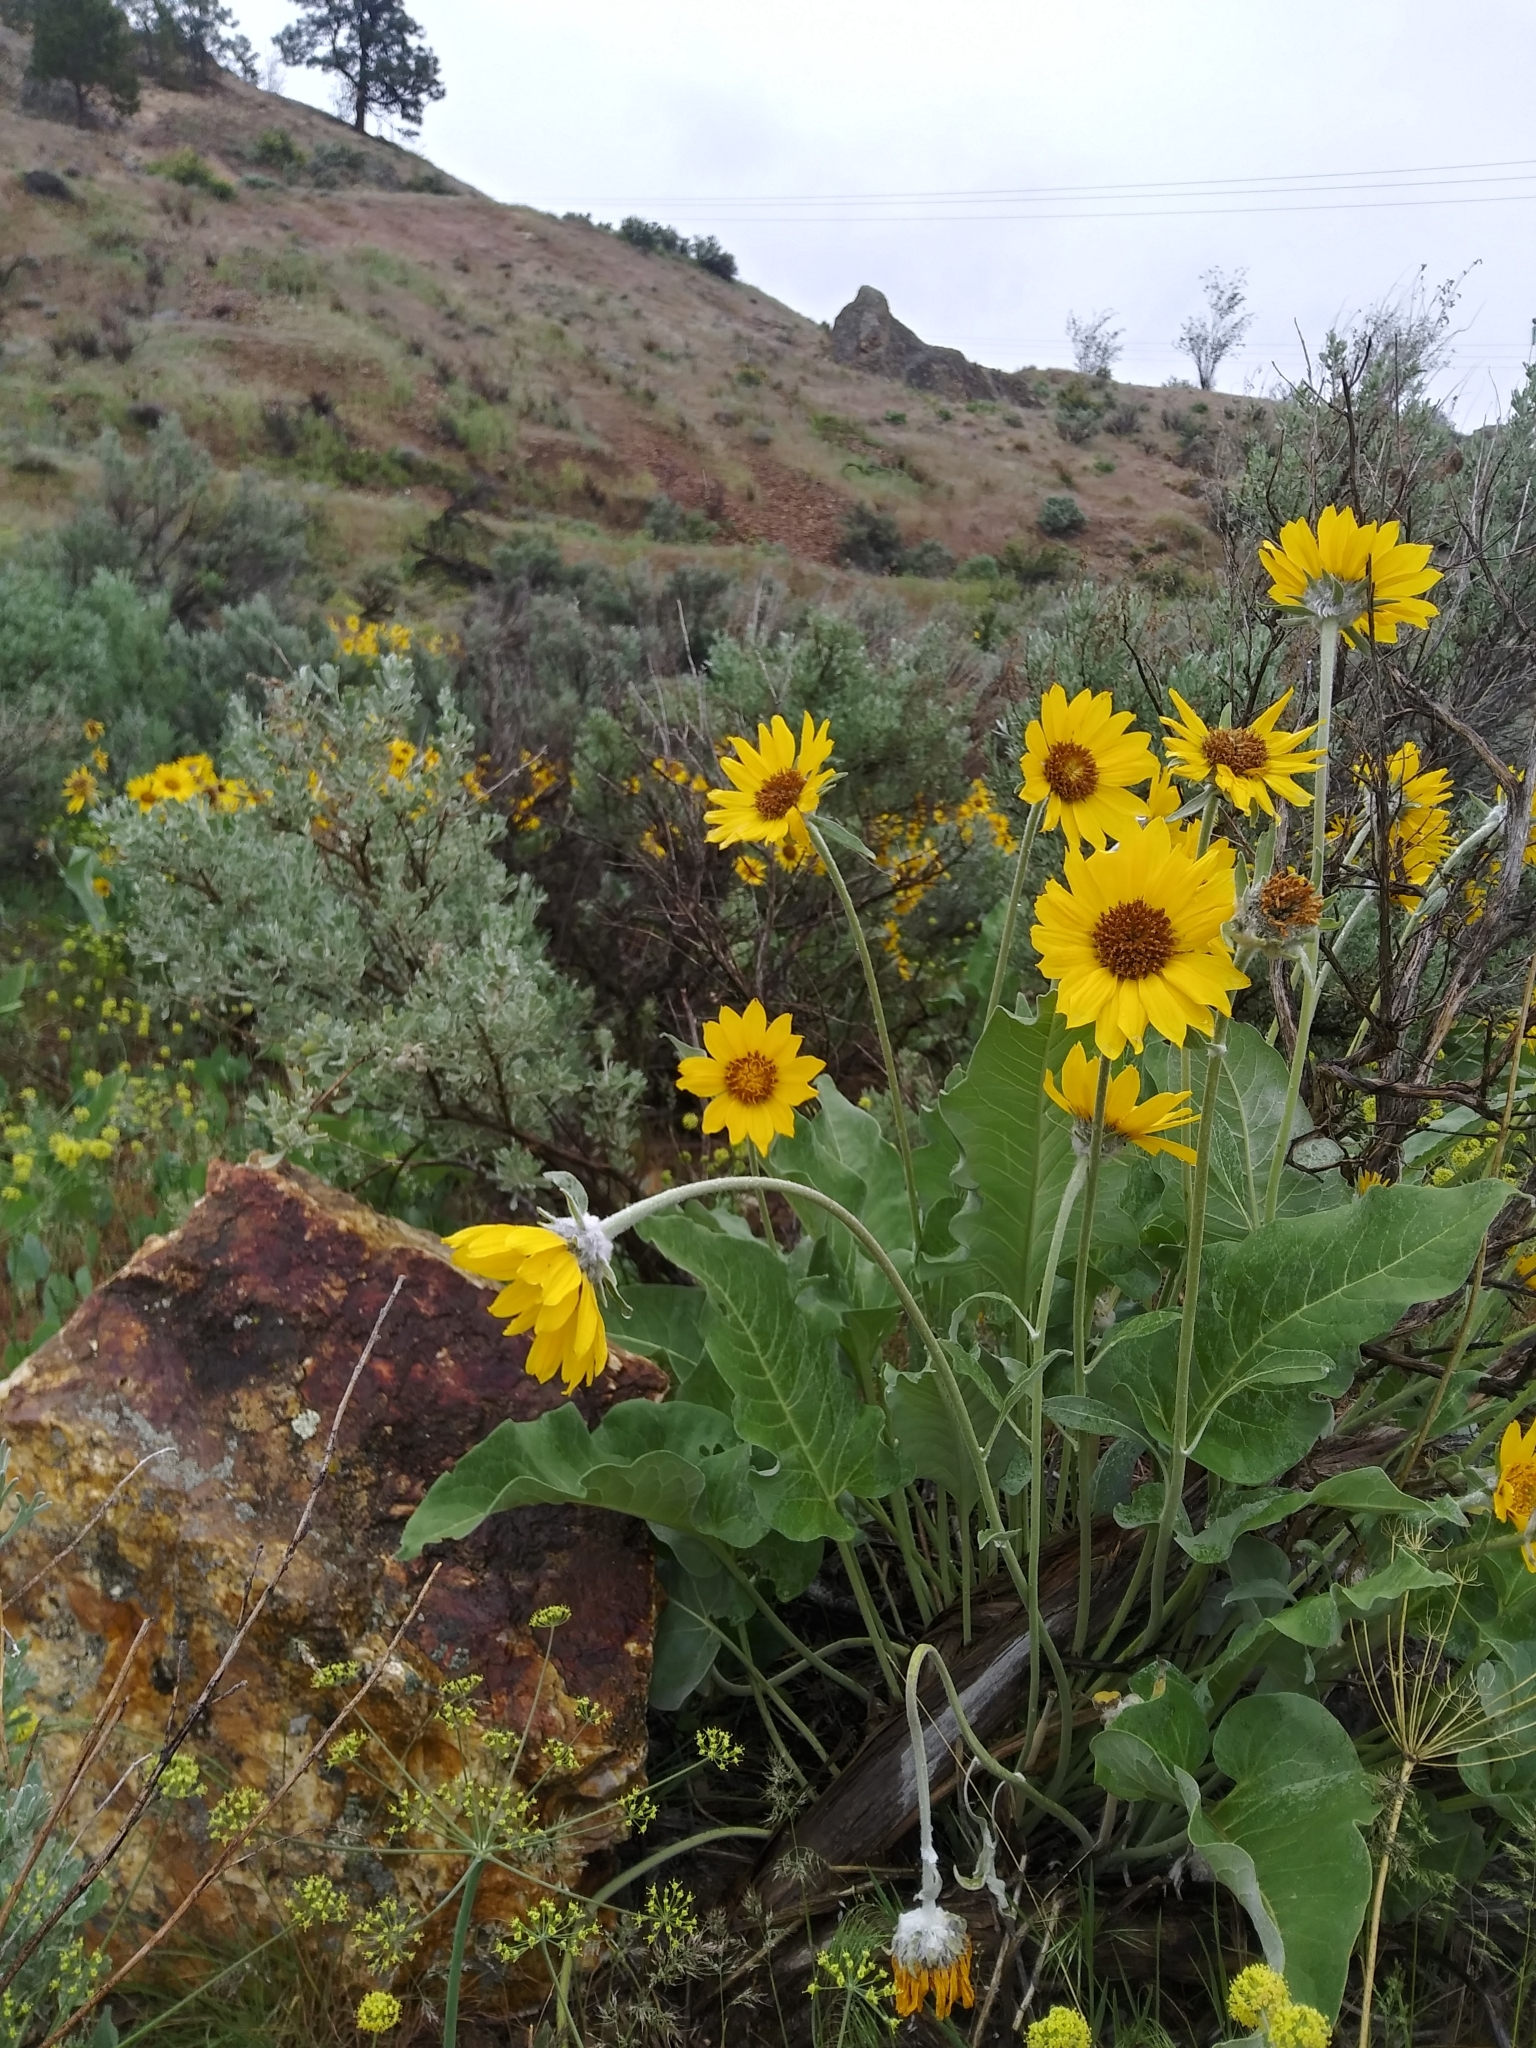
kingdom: Plantae
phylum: Tracheophyta
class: Magnoliopsida
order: Asterales
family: Asteraceae
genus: Wyethia
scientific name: Wyethia sagittata
